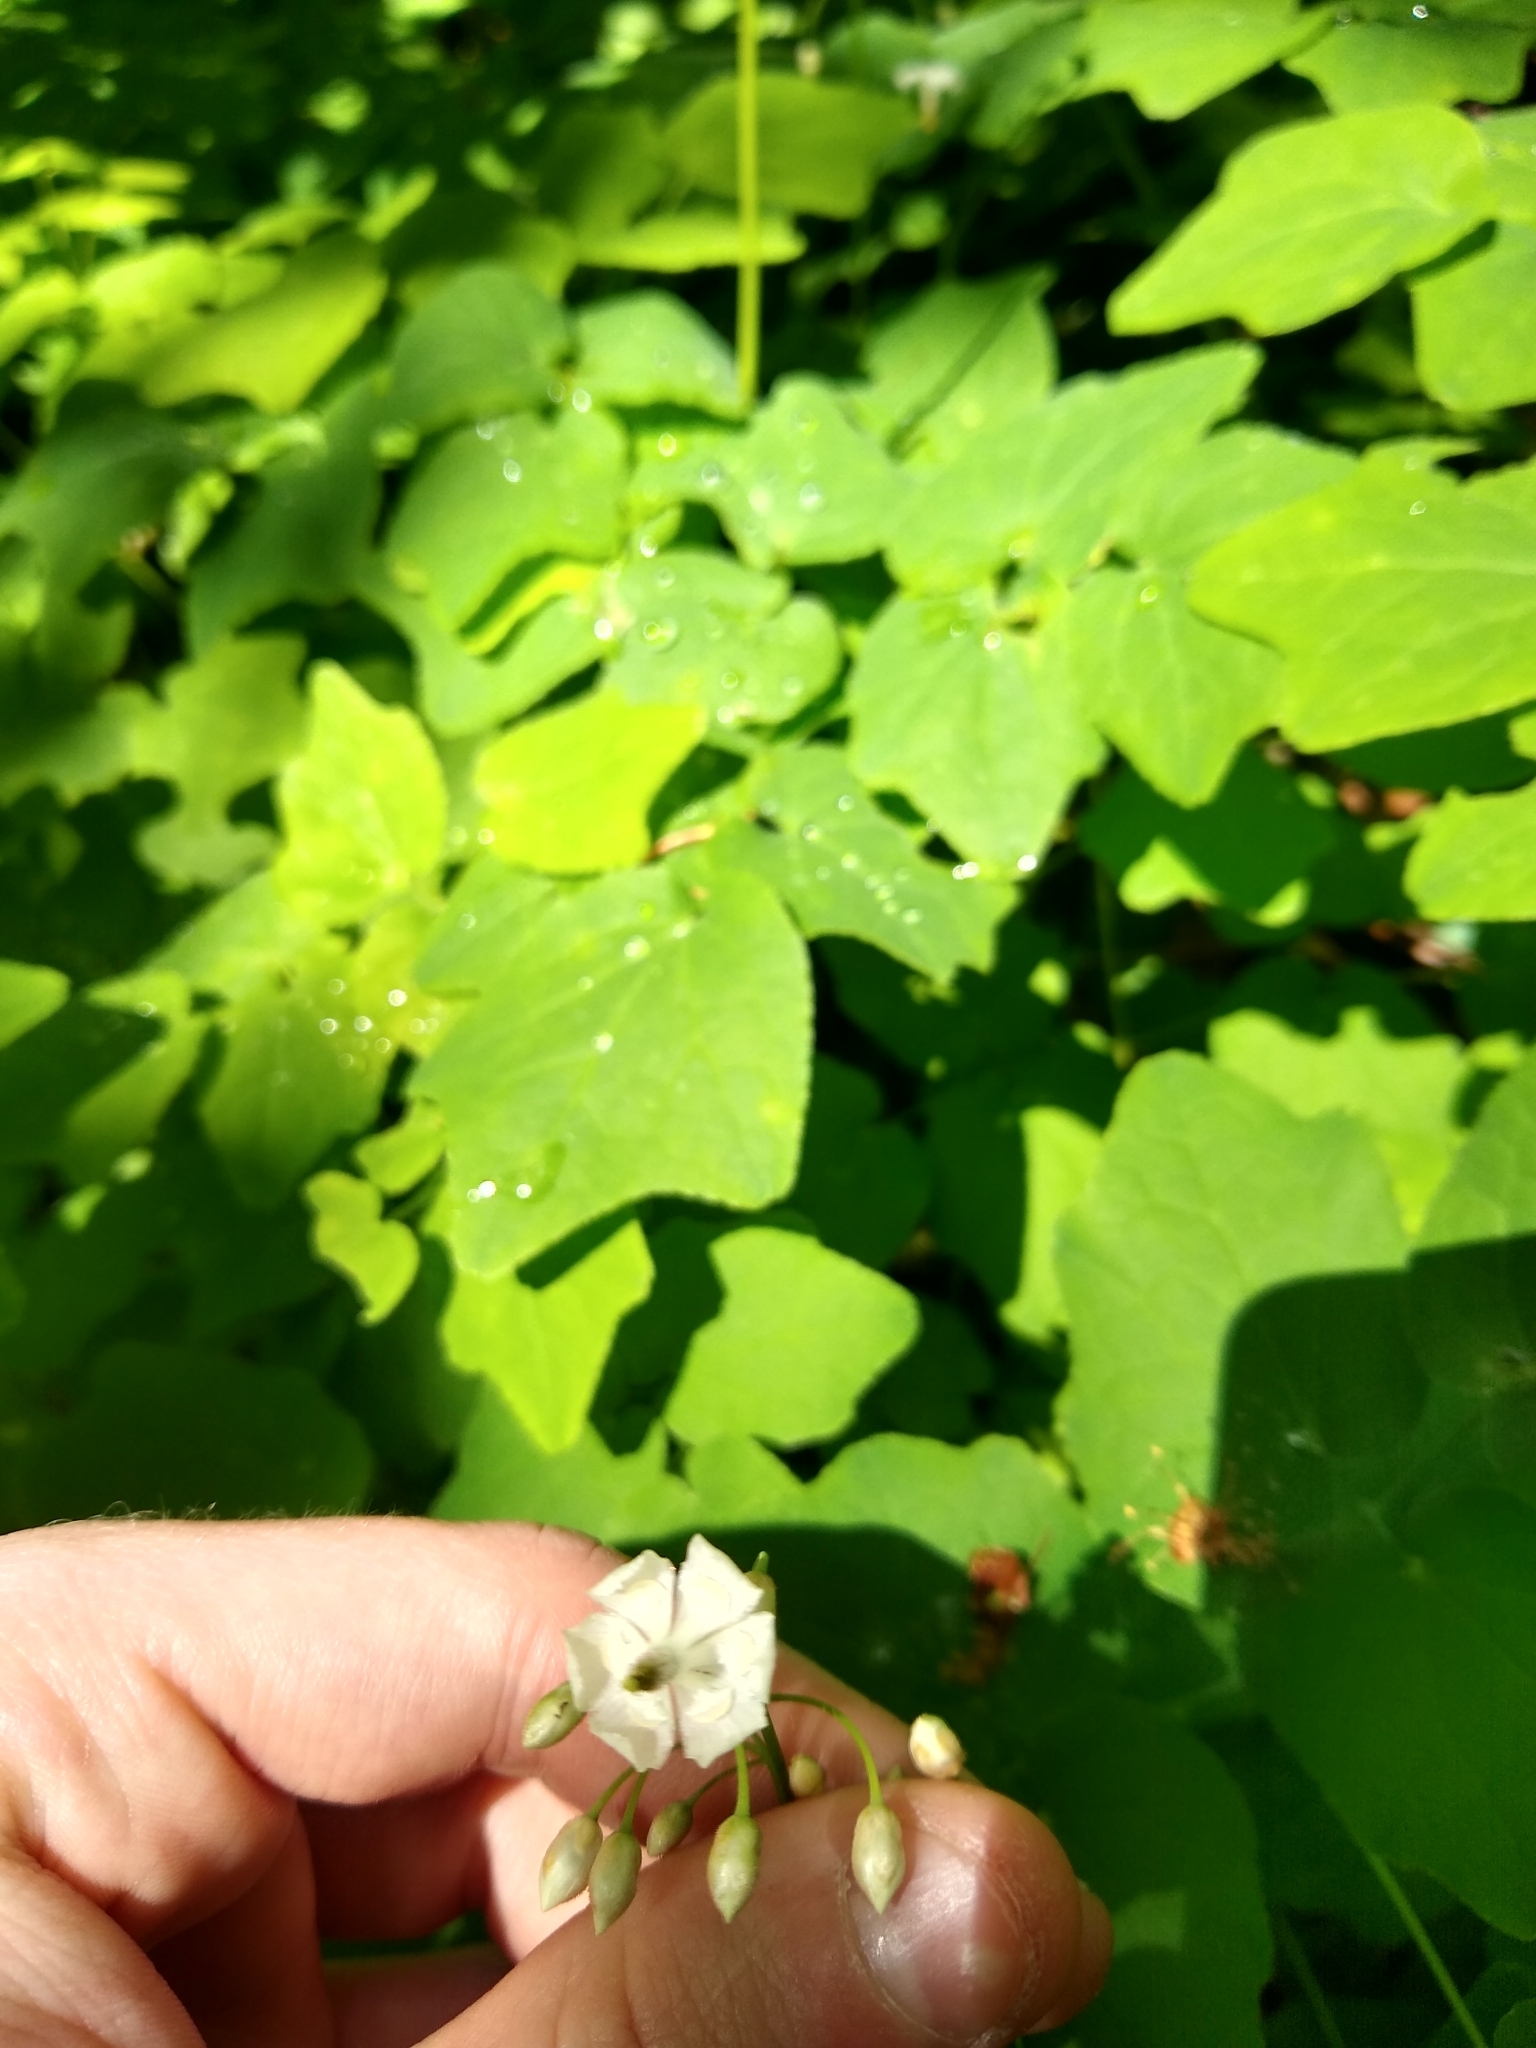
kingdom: Plantae
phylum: Tracheophyta
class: Magnoliopsida
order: Ranunculales
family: Berberidaceae
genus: Vancouveria
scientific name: Vancouveria hexandra
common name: Northern inside-out-flower
